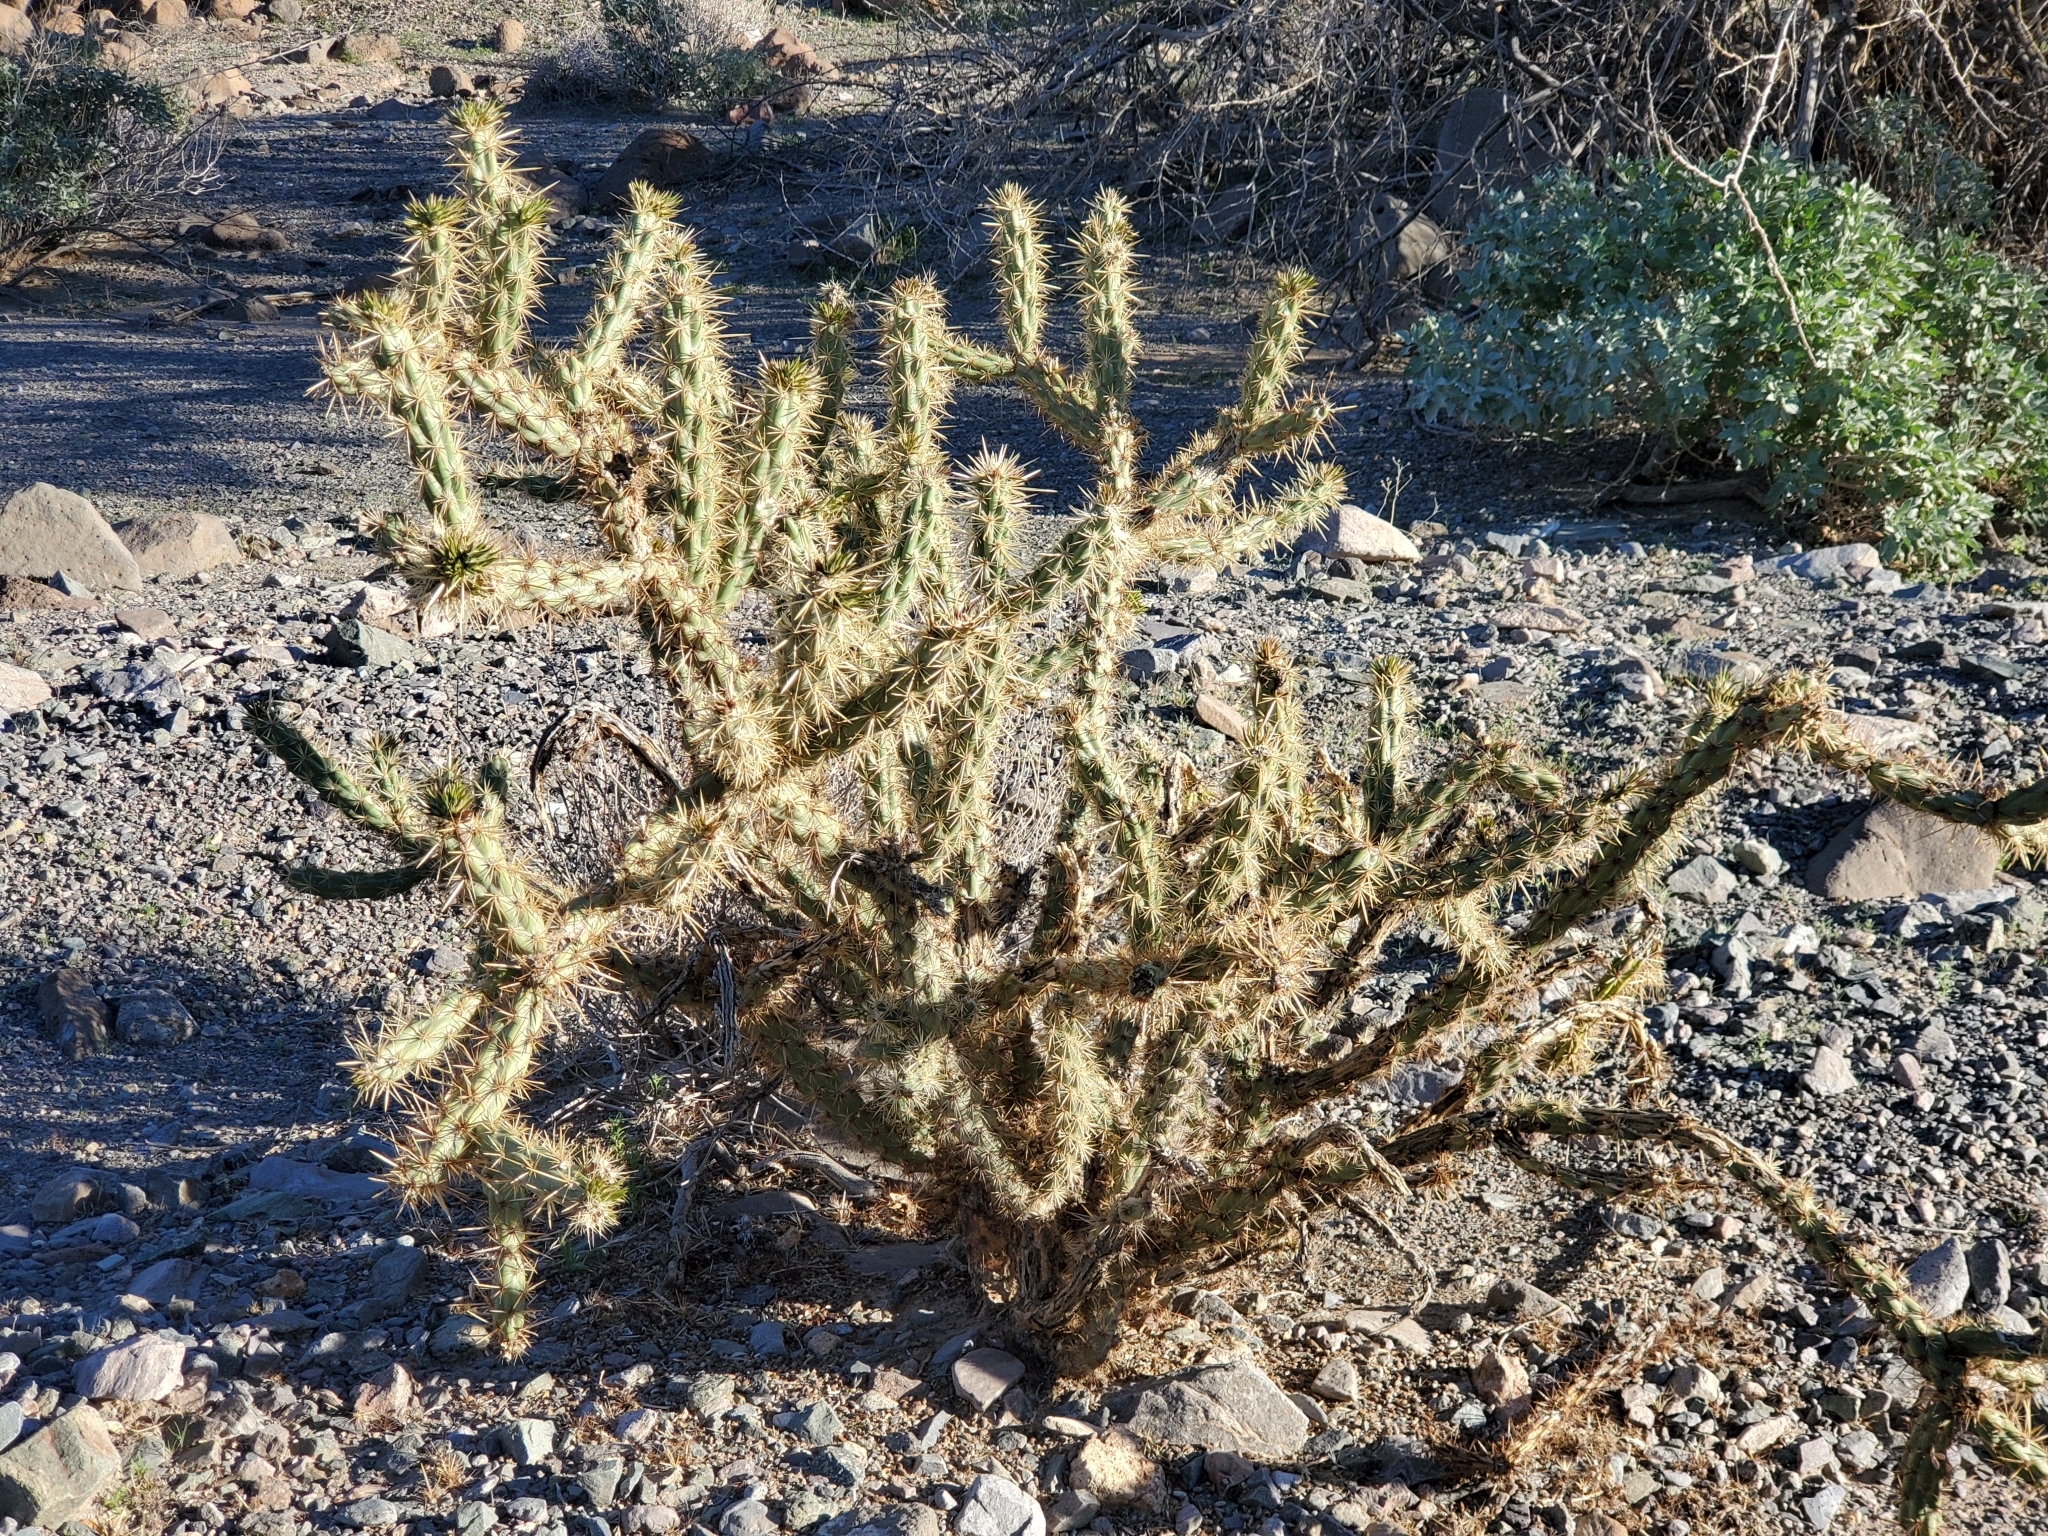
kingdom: Plantae
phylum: Tracheophyta
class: Magnoliopsida
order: Caryophyllales
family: Cactaceae
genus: Cylindropuntia
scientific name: Cylindropuntia acanthocarpa
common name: Buckhorn cholla
